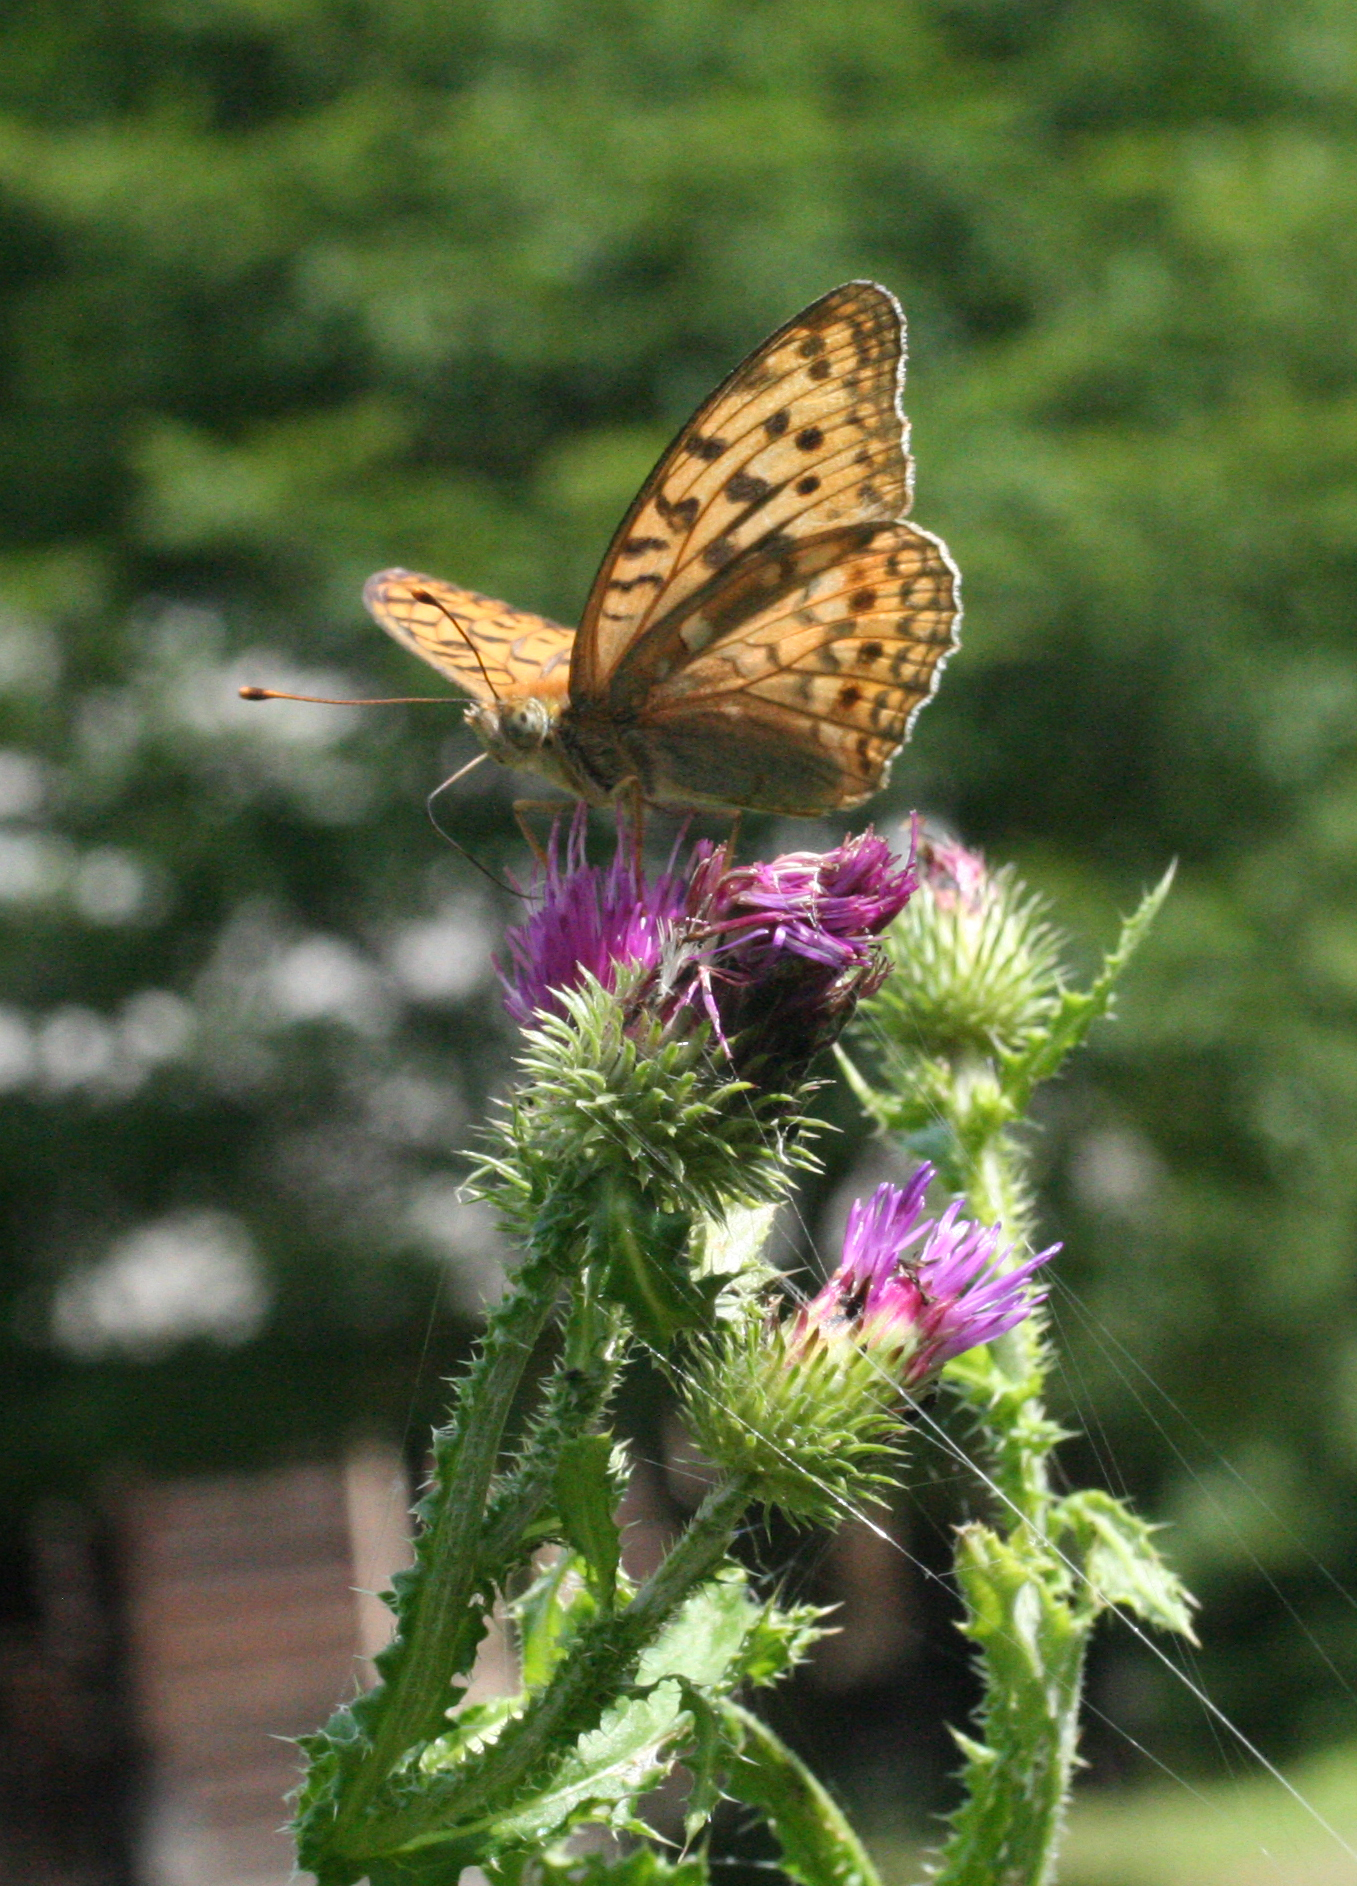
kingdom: Plantae
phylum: Tracheophyta
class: Magnoliopsida
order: Asterales
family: Asteraceae
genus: Carduus
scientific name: Carduus crispus
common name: Welted thistle
